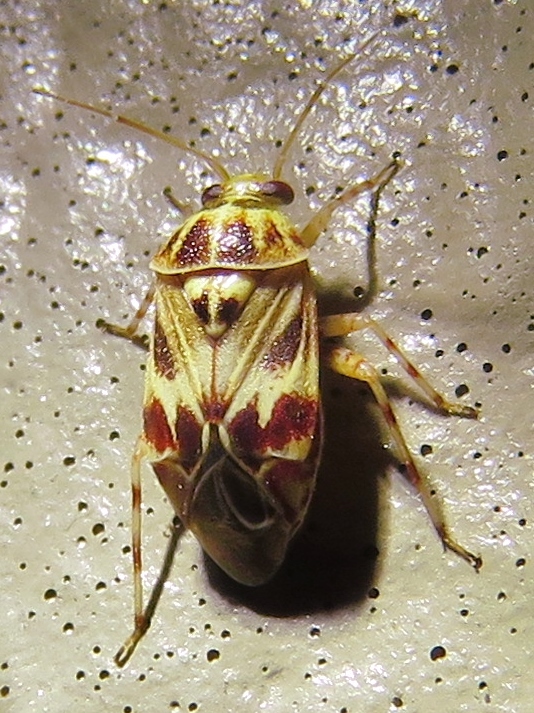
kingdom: Animalia
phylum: Arthropoda
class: Insecta
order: Hemiptera
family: Miridae
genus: Tropidosteptes
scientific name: Tropidosteptes quercicola
